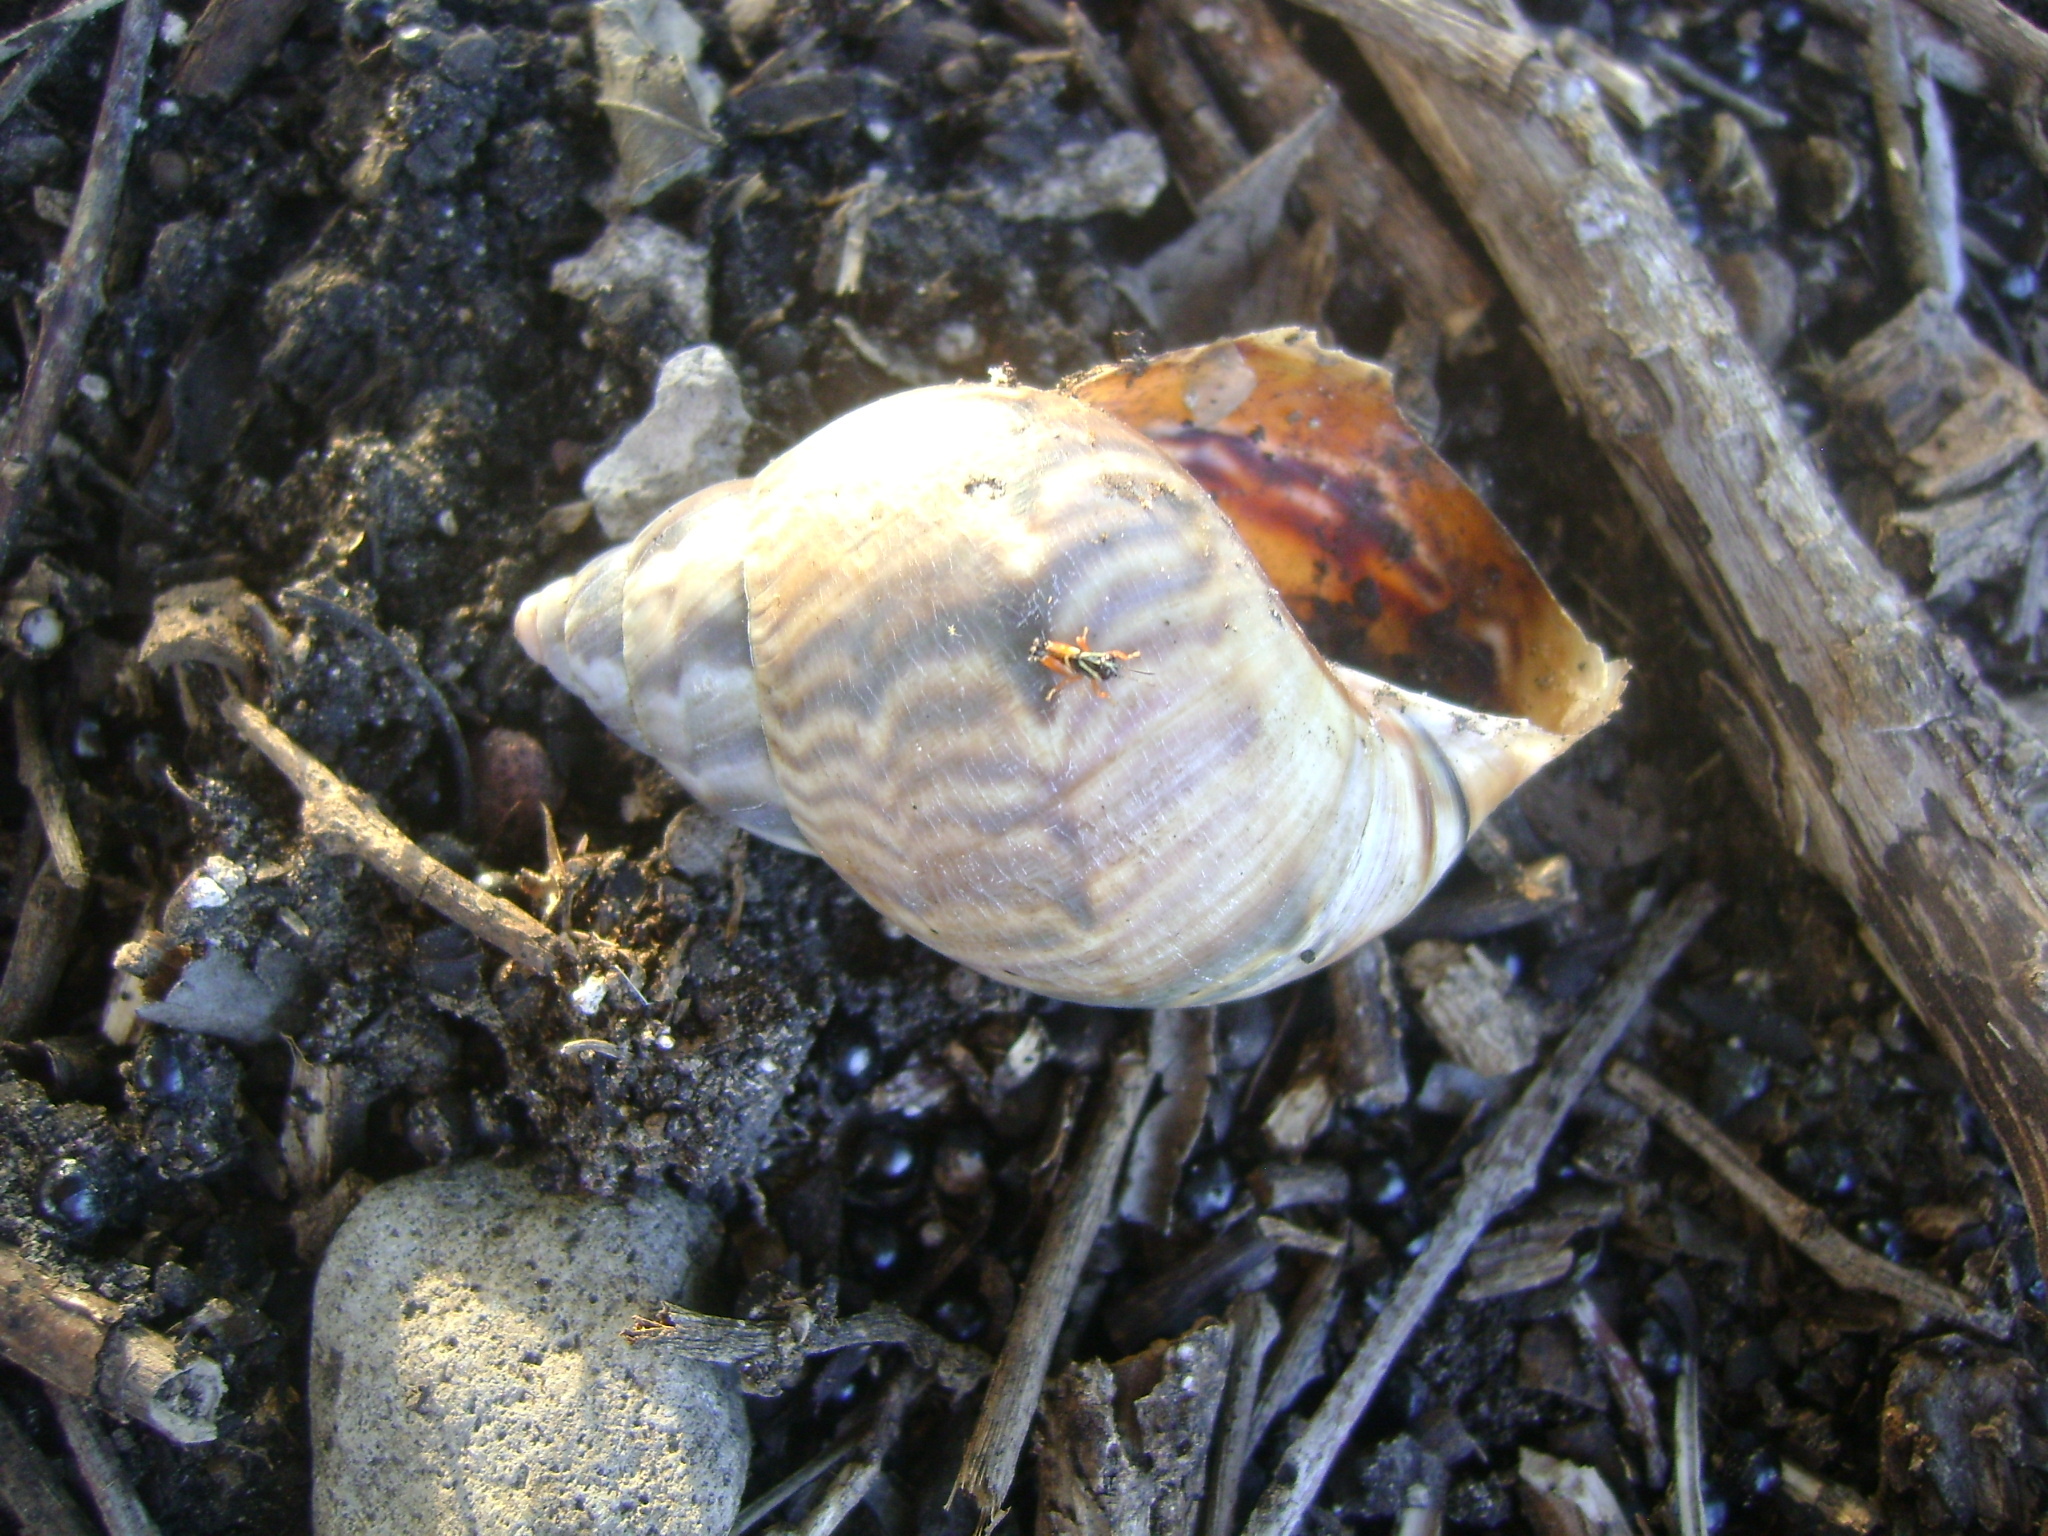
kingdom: Animalia
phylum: Mollusca
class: Gastropoda
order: Stylommatophora
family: Orthalicidae
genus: Orthalicus
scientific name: Orthalicus
